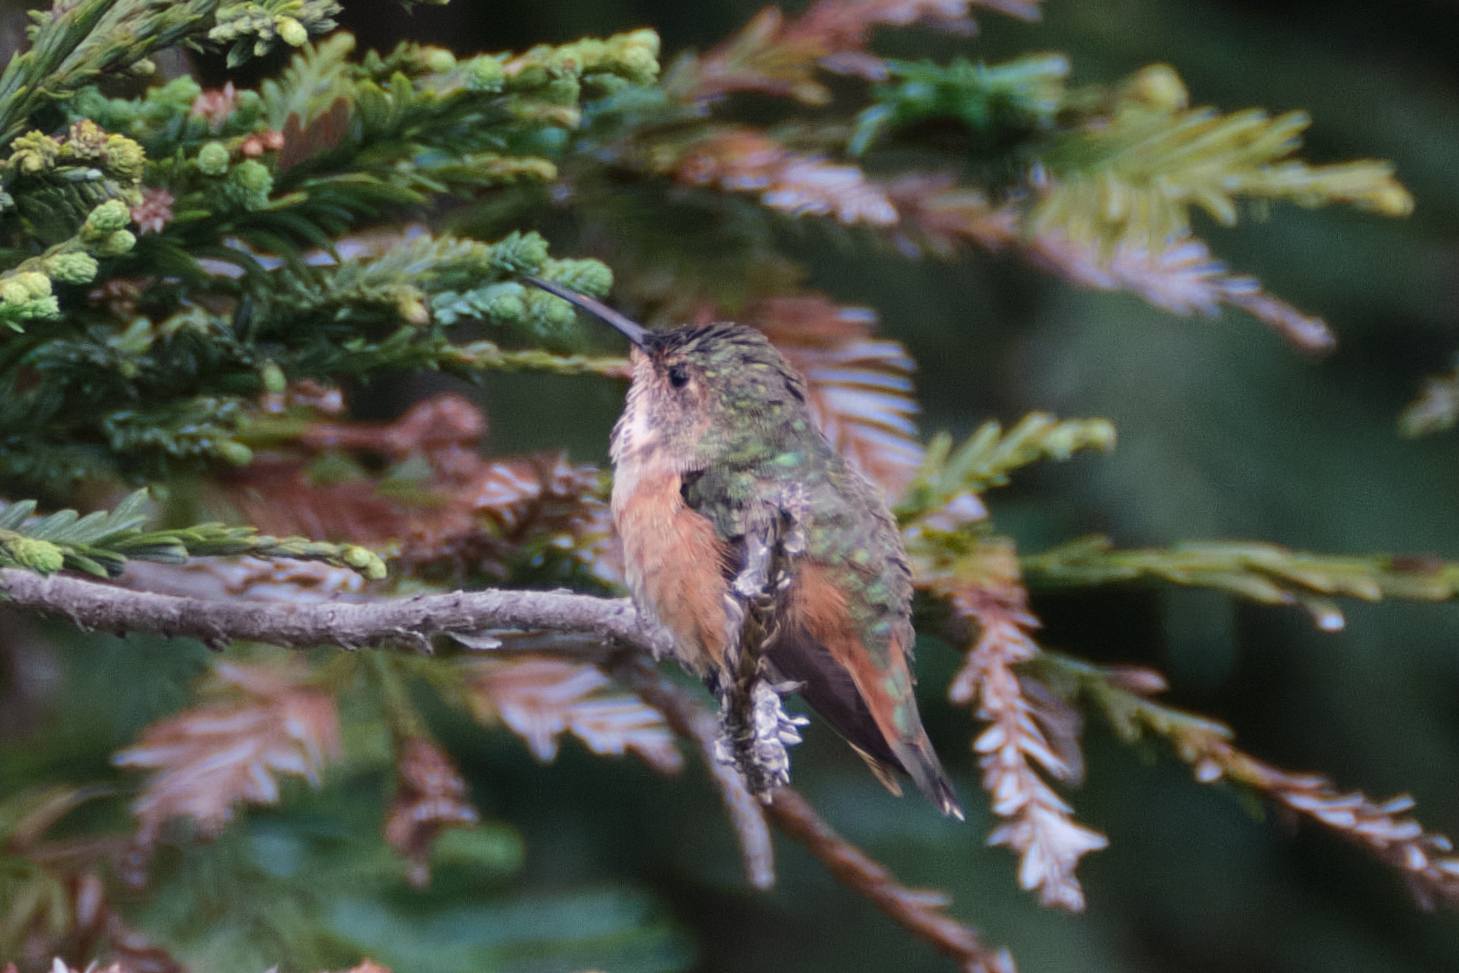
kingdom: Animalia
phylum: Chordata
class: Aves
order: Apodiformes
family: Trochilidae
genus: Selasphorus
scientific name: Selasphorus sasin
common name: Allen's hummingbird
